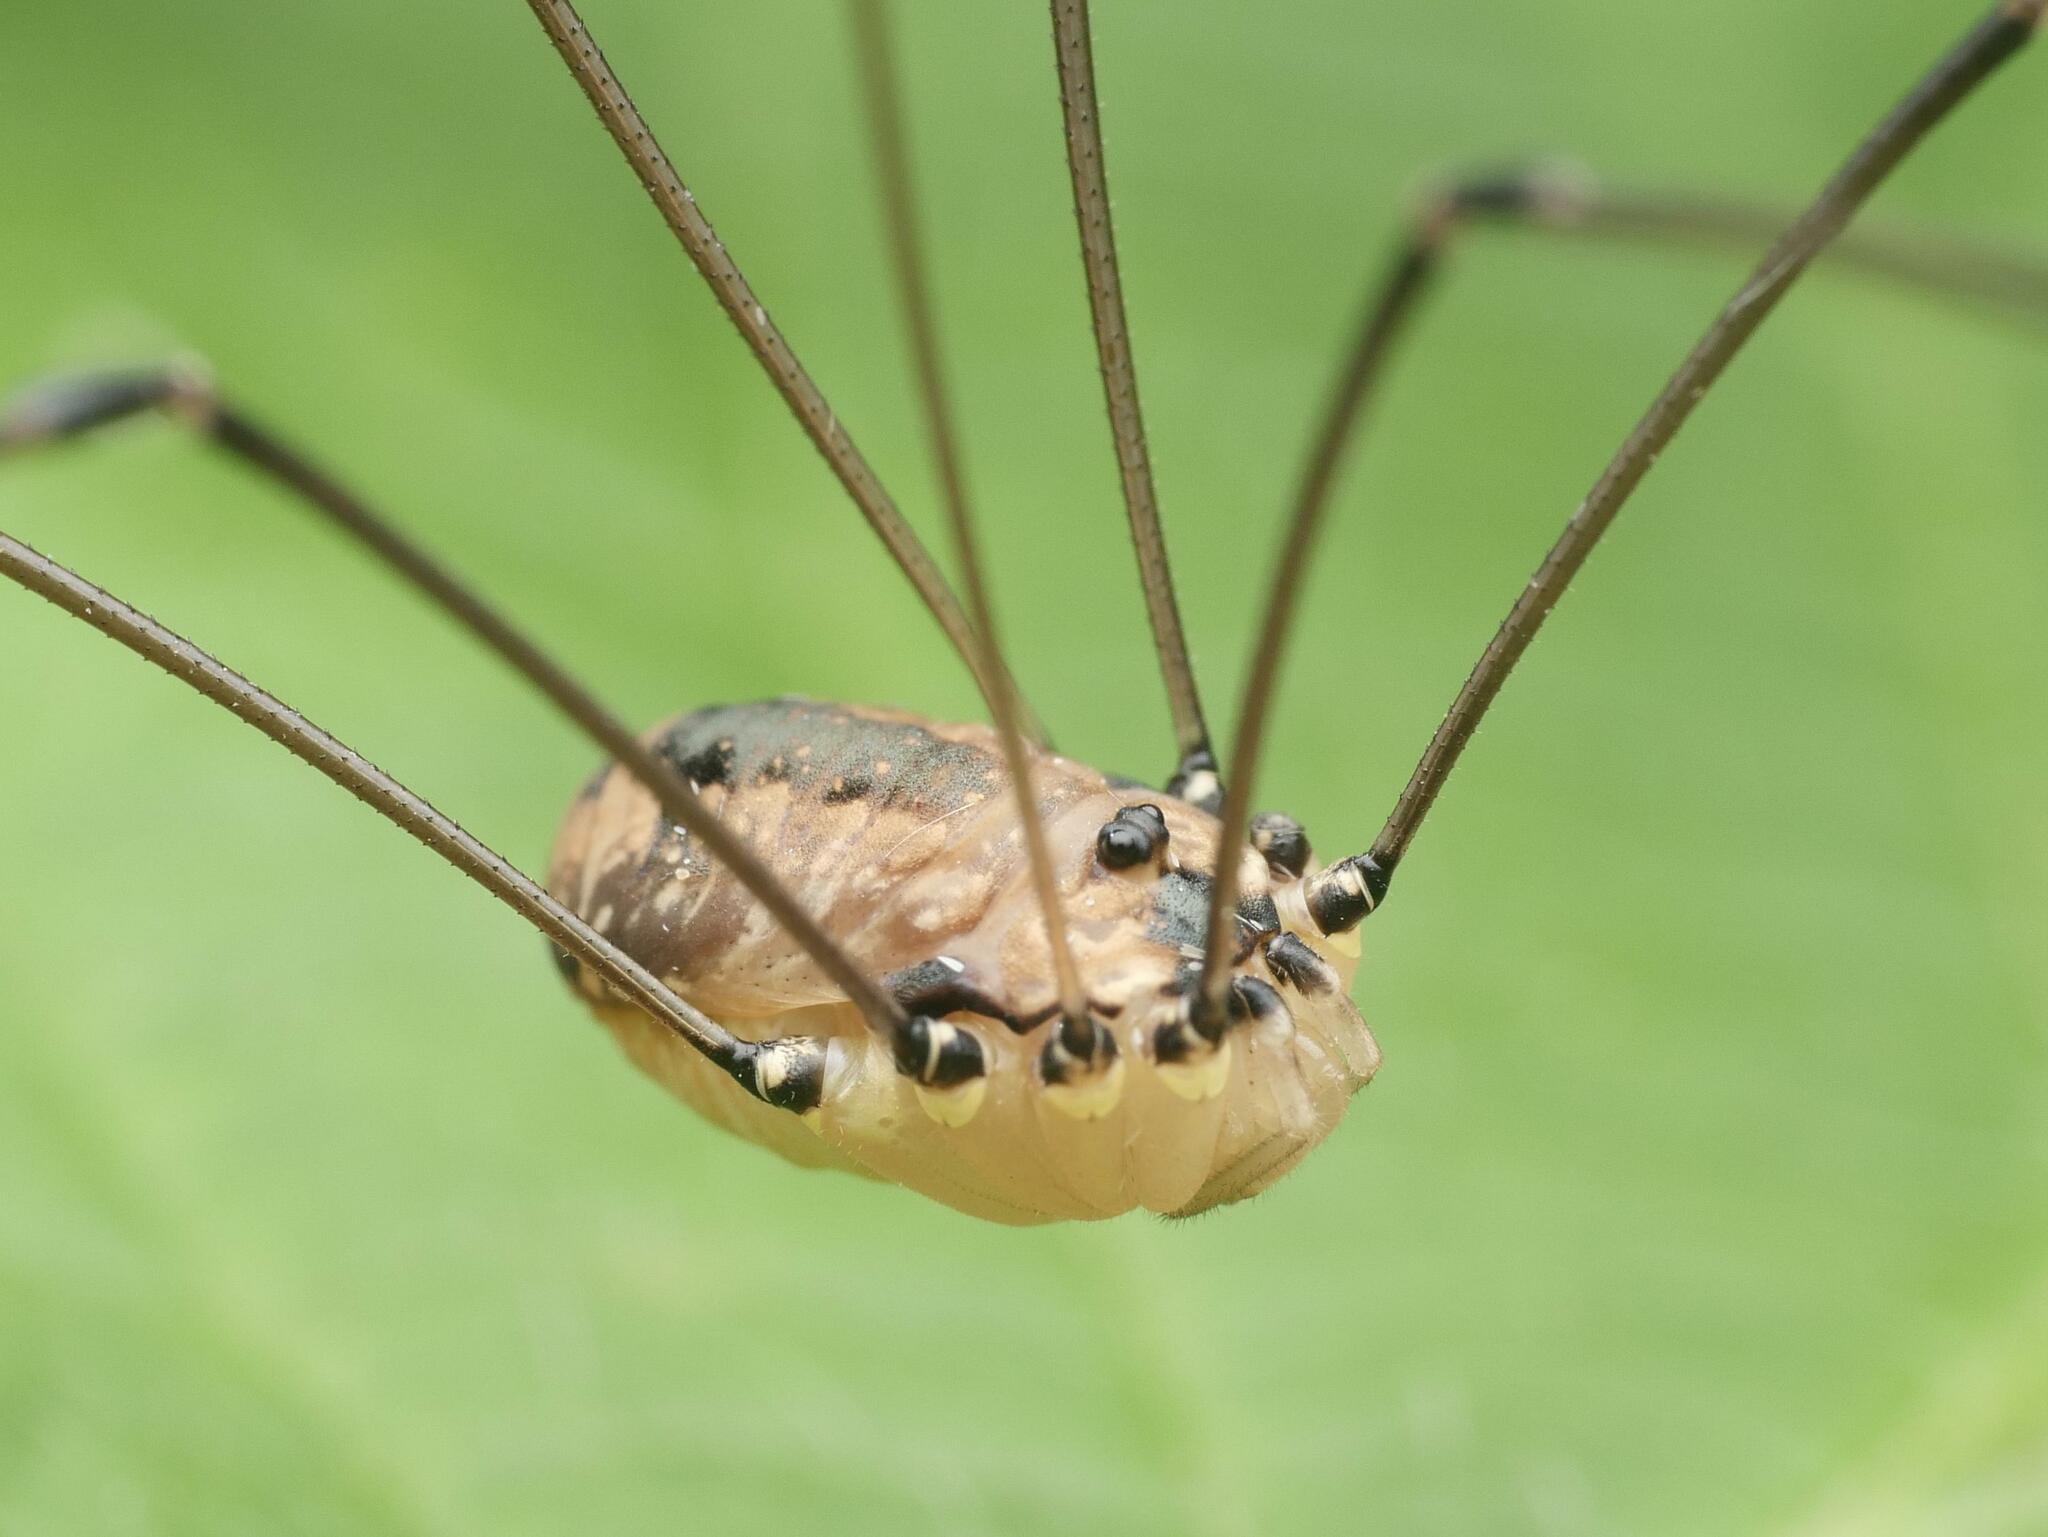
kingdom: Animalia
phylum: Arthropoda
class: Arachnida
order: Opiliones
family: Sclerosomatidae
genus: Leiobunum
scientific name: Leiobunum rotundum
